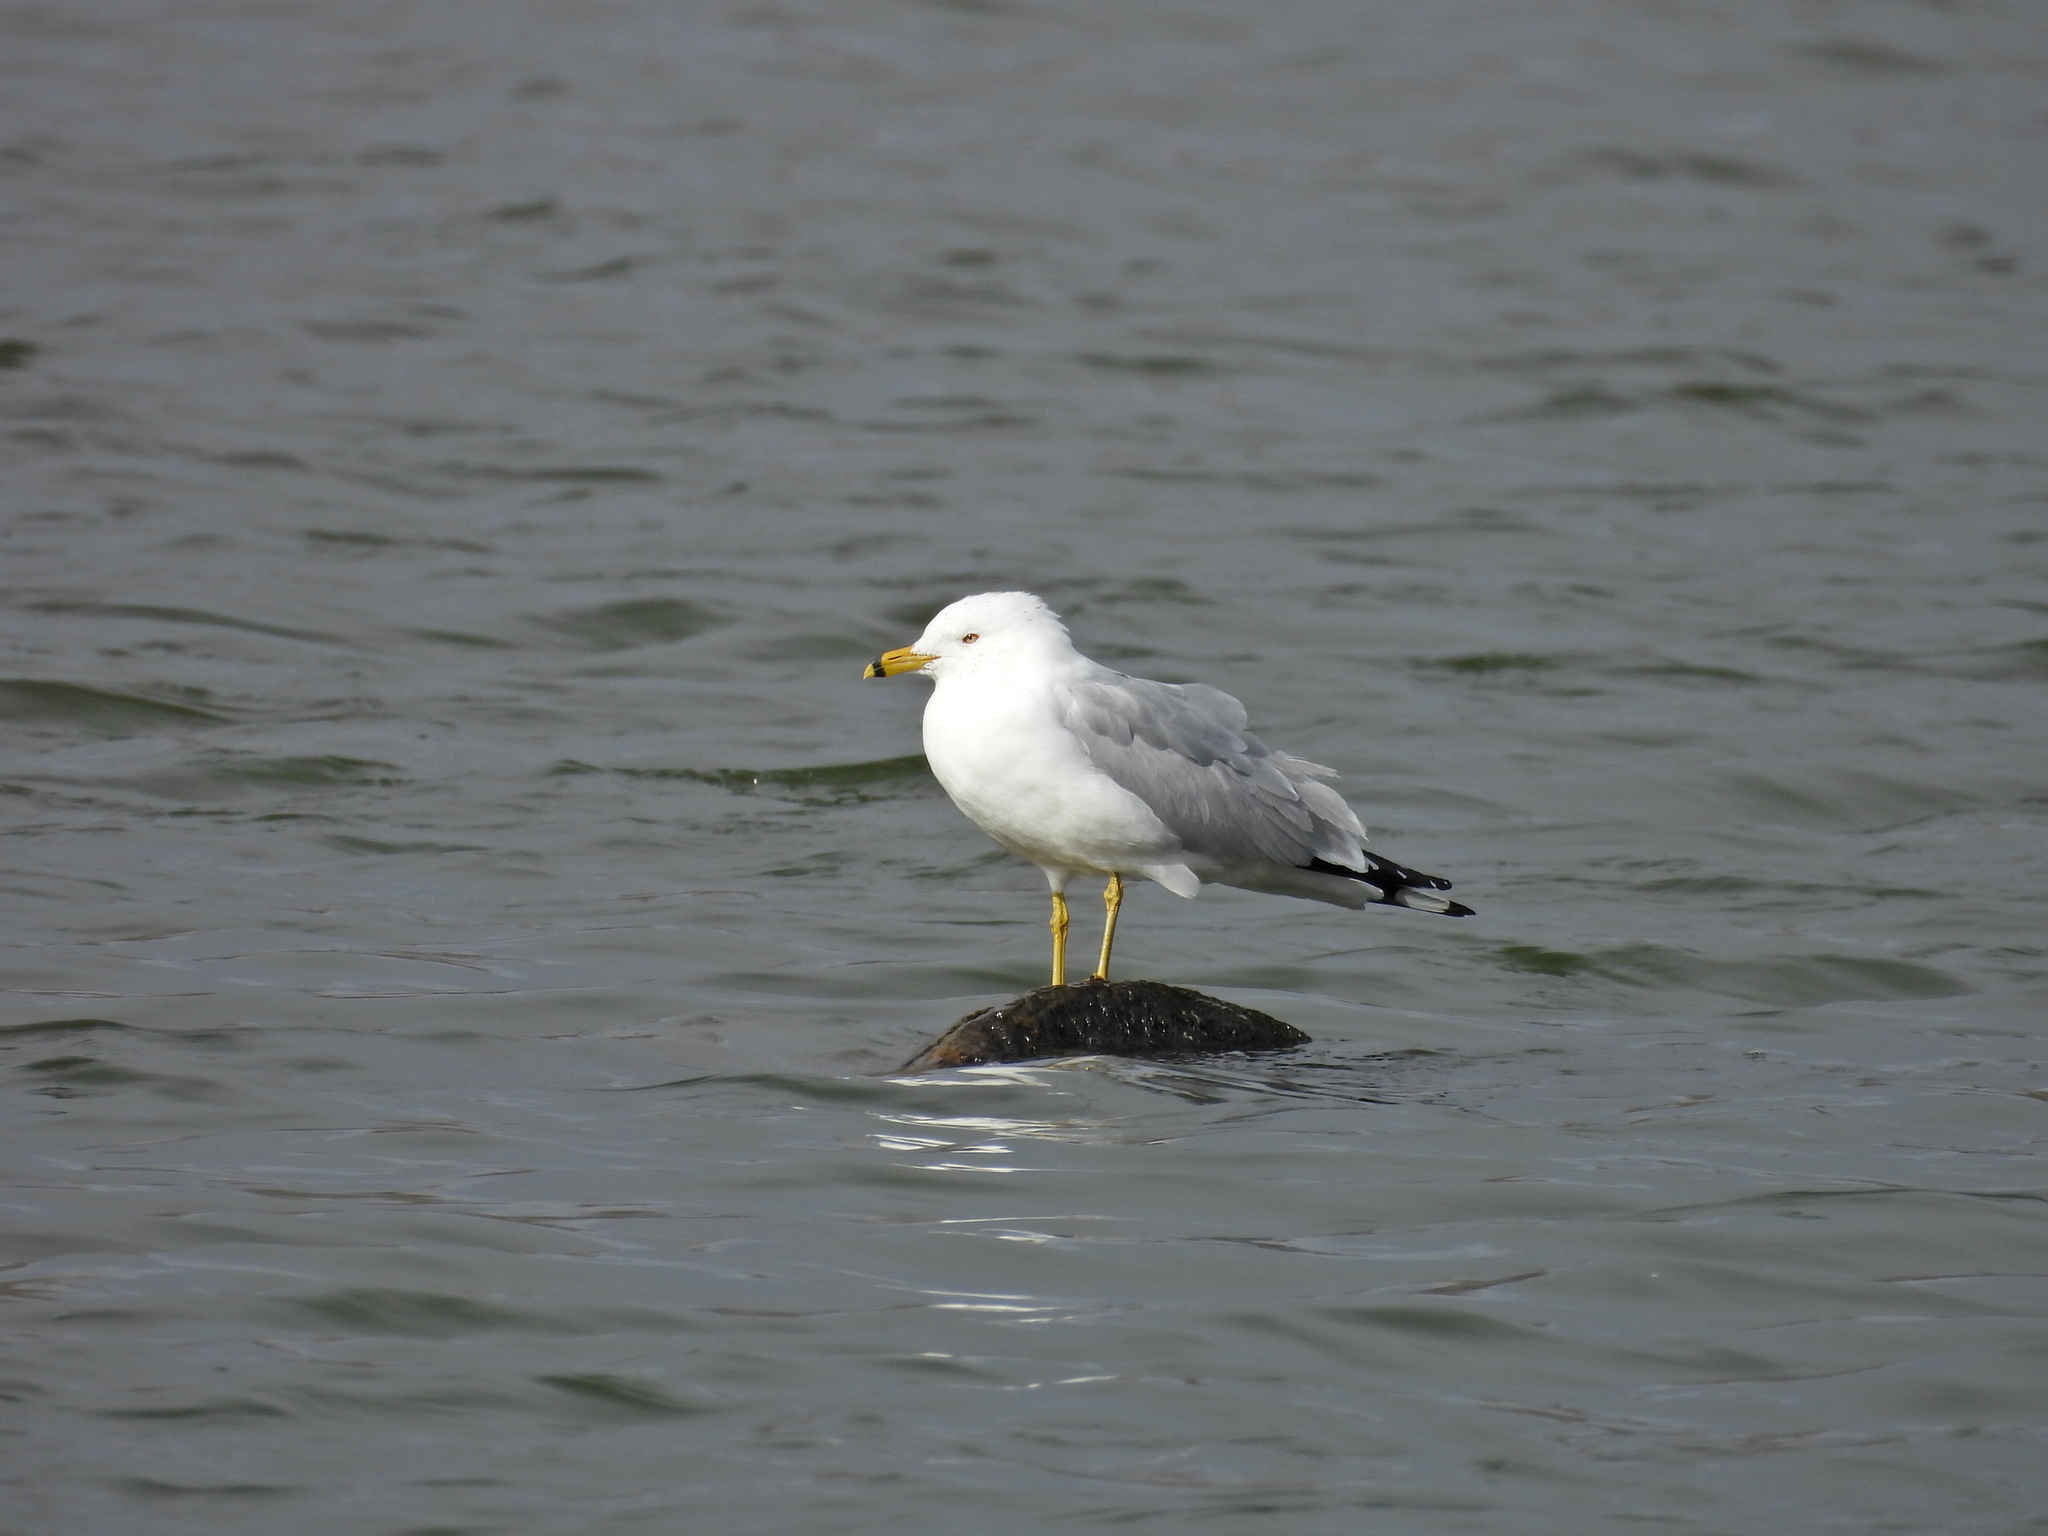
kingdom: Animalia
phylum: Chordata
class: Aves
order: Charadriiformes
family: Laridae
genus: Larus
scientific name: Larus delawarensis
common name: Ring-billed gull
